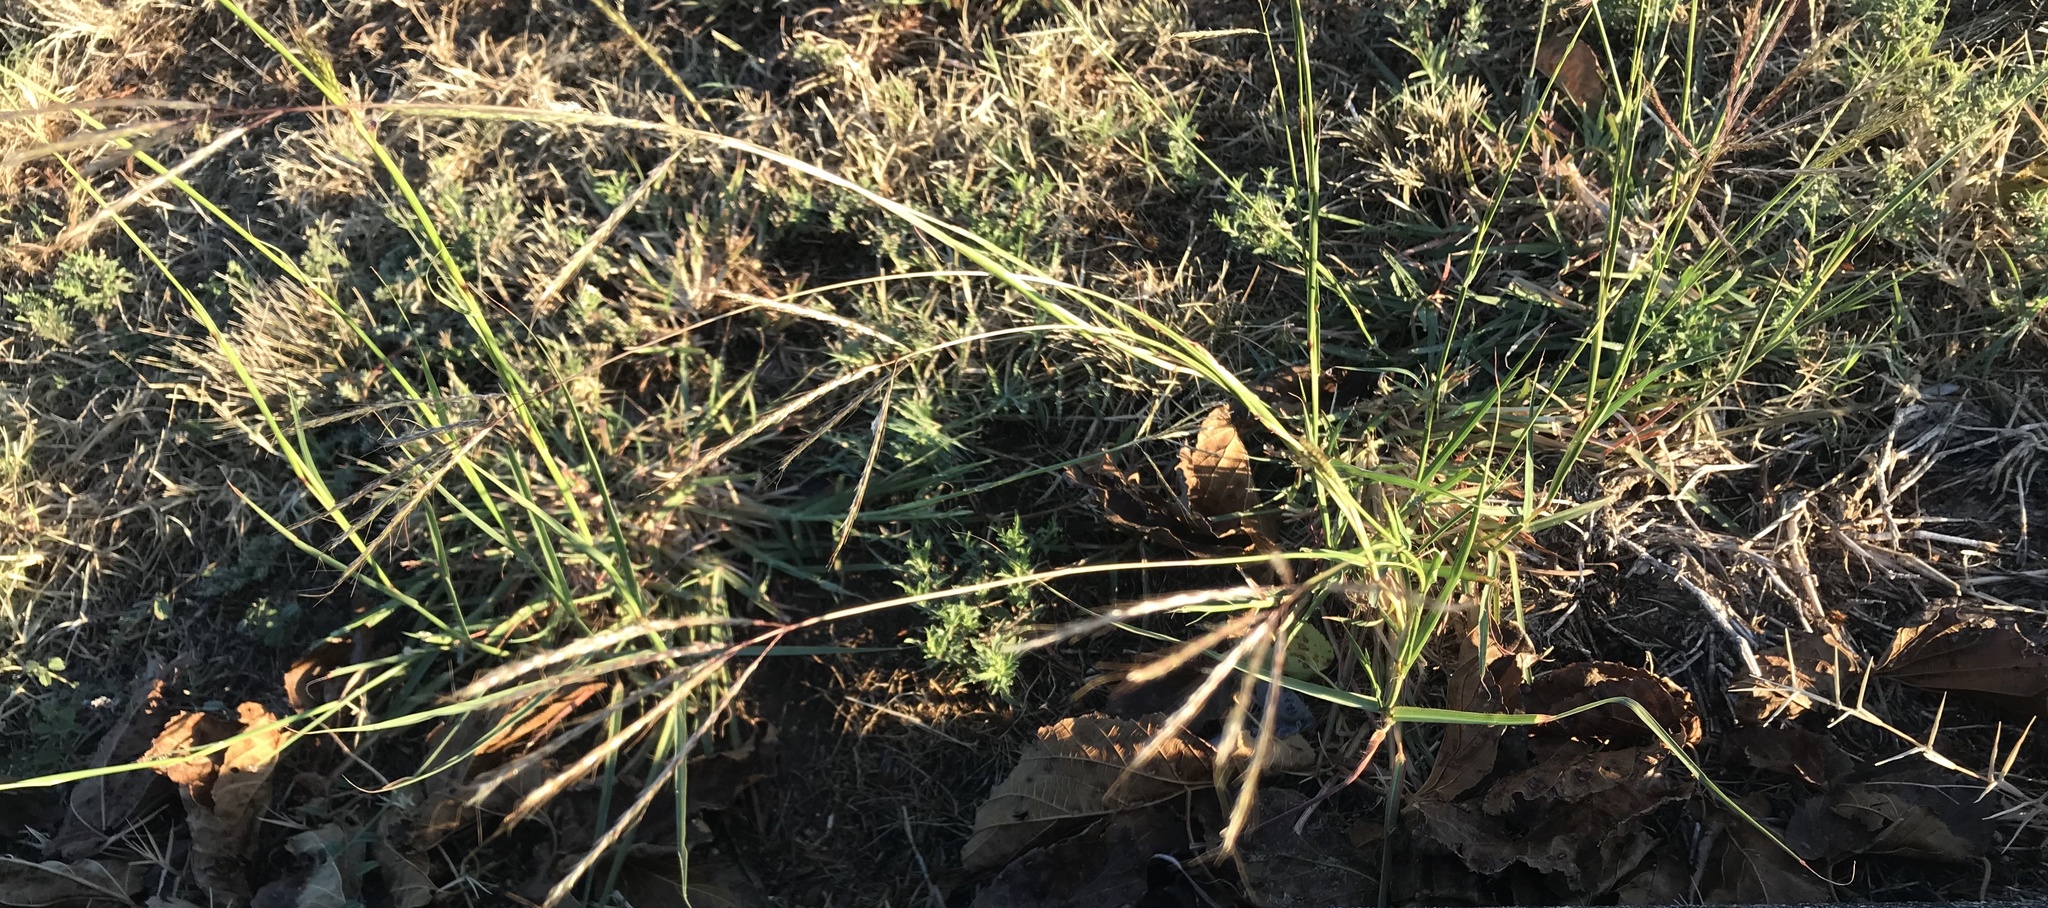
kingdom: Plantae
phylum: Tracheophyta
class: Liliopsida
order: Poales
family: Poaceae
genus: Bothriochloa
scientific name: Bothriochloa ischaemum
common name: Yellow bluestem
